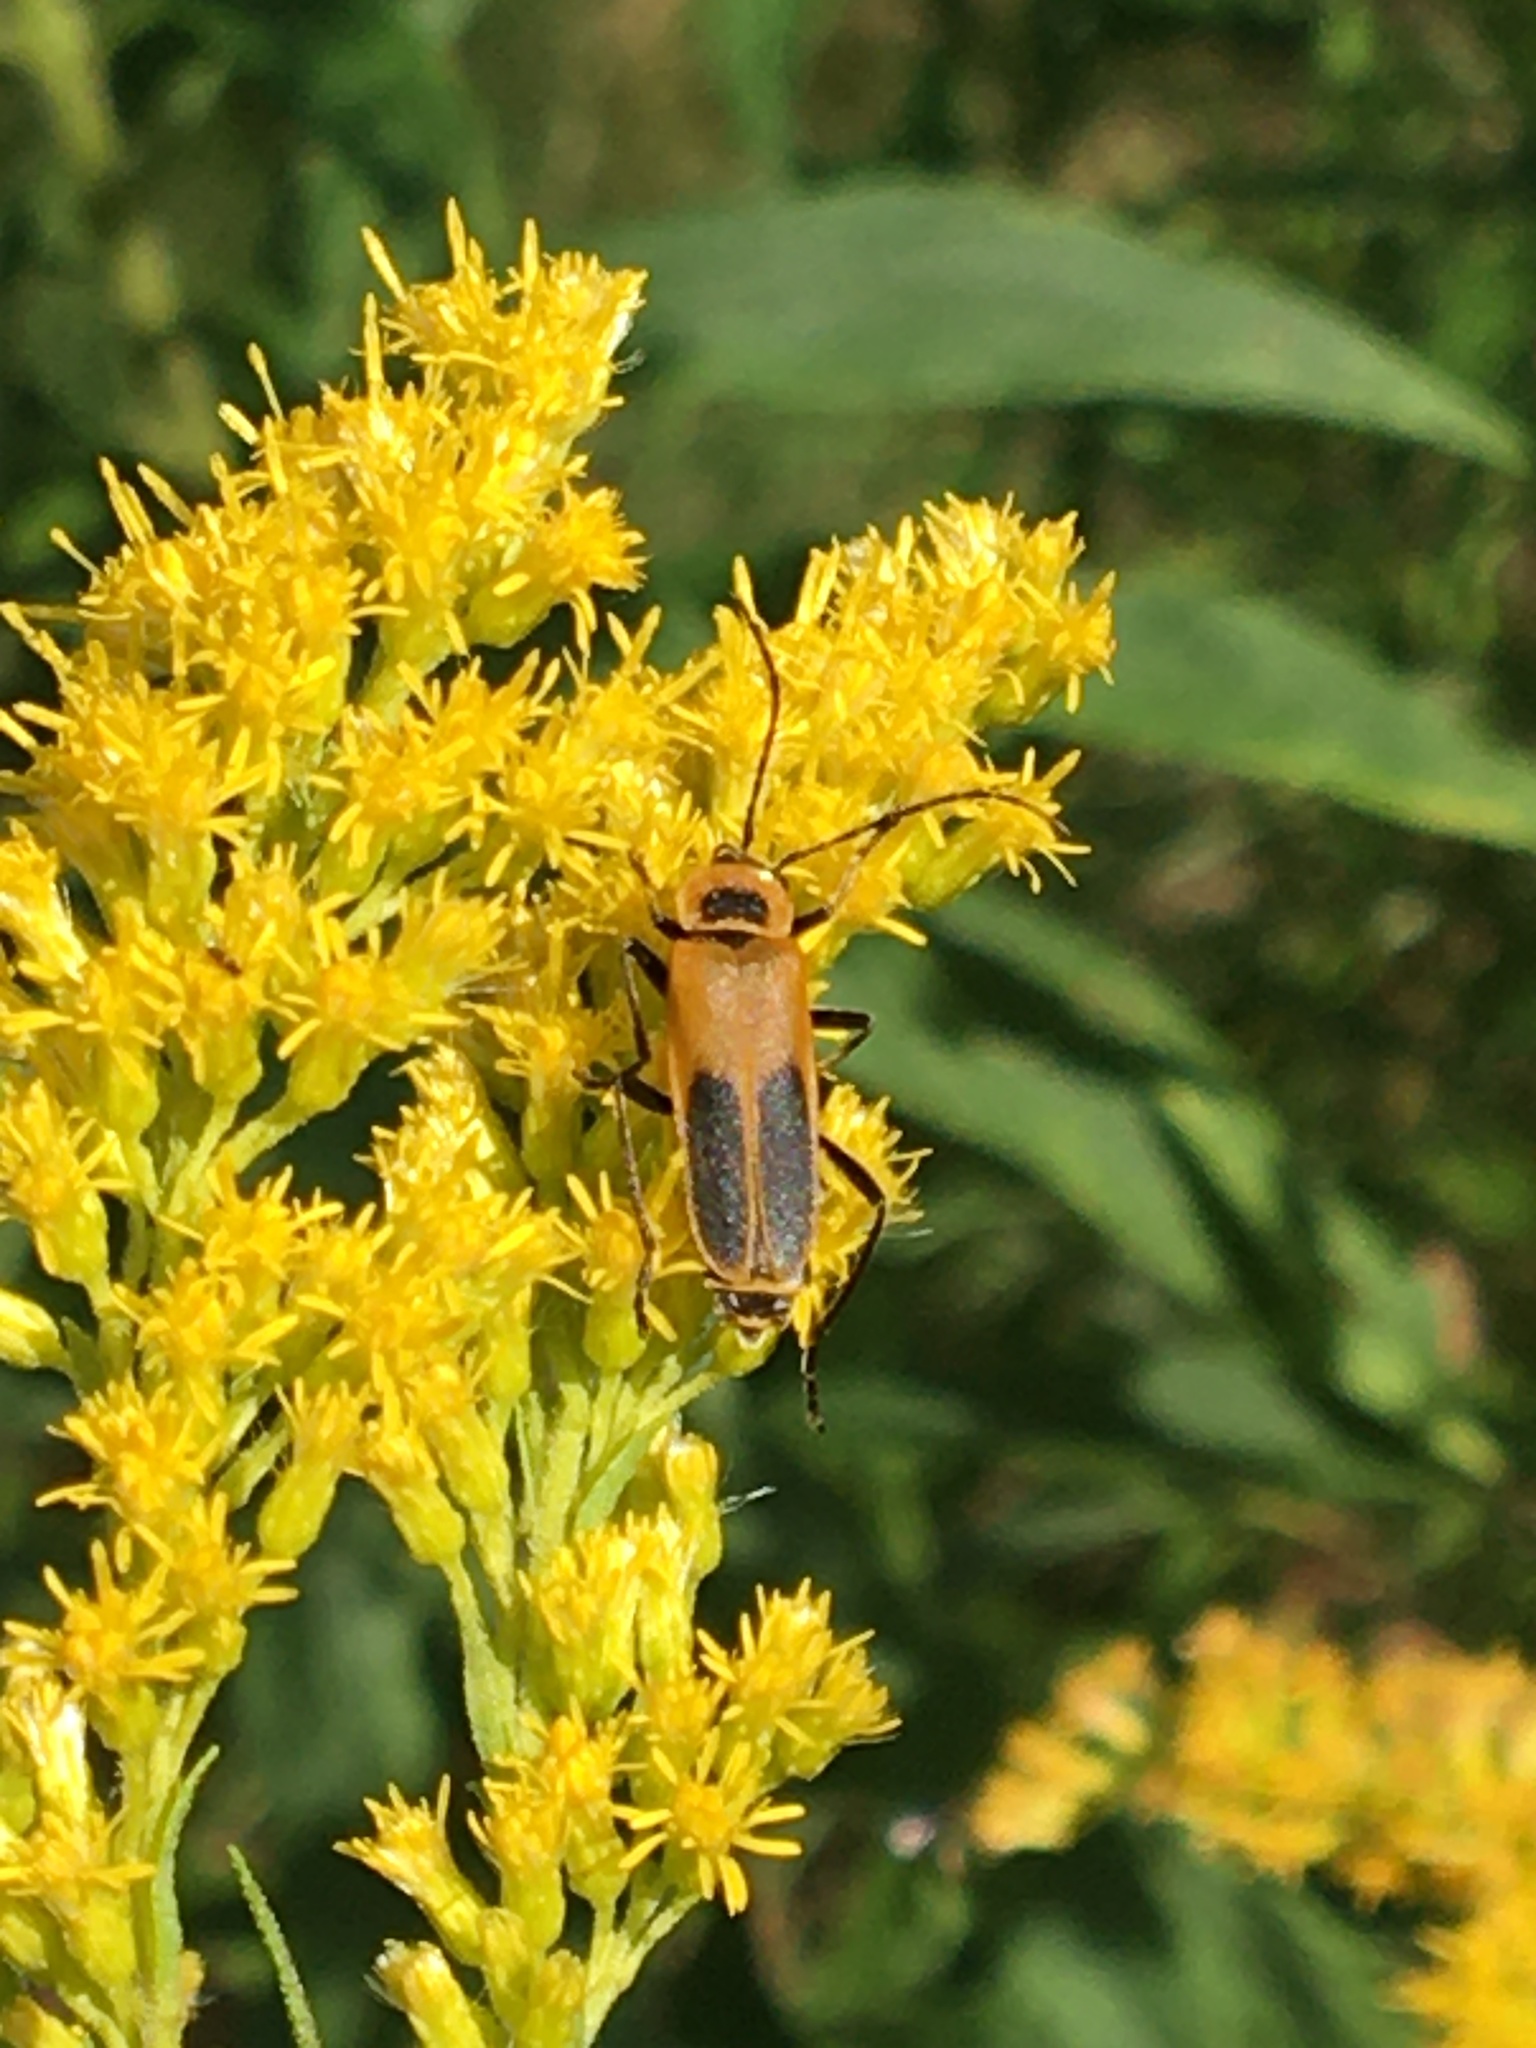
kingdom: Animalia
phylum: Arthropoda
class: Insecta
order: Coleoptera
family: Cantharidae
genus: Chauliognathus
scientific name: Chauliognathus pensylvanicus
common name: Goldenrod soldier beetle
